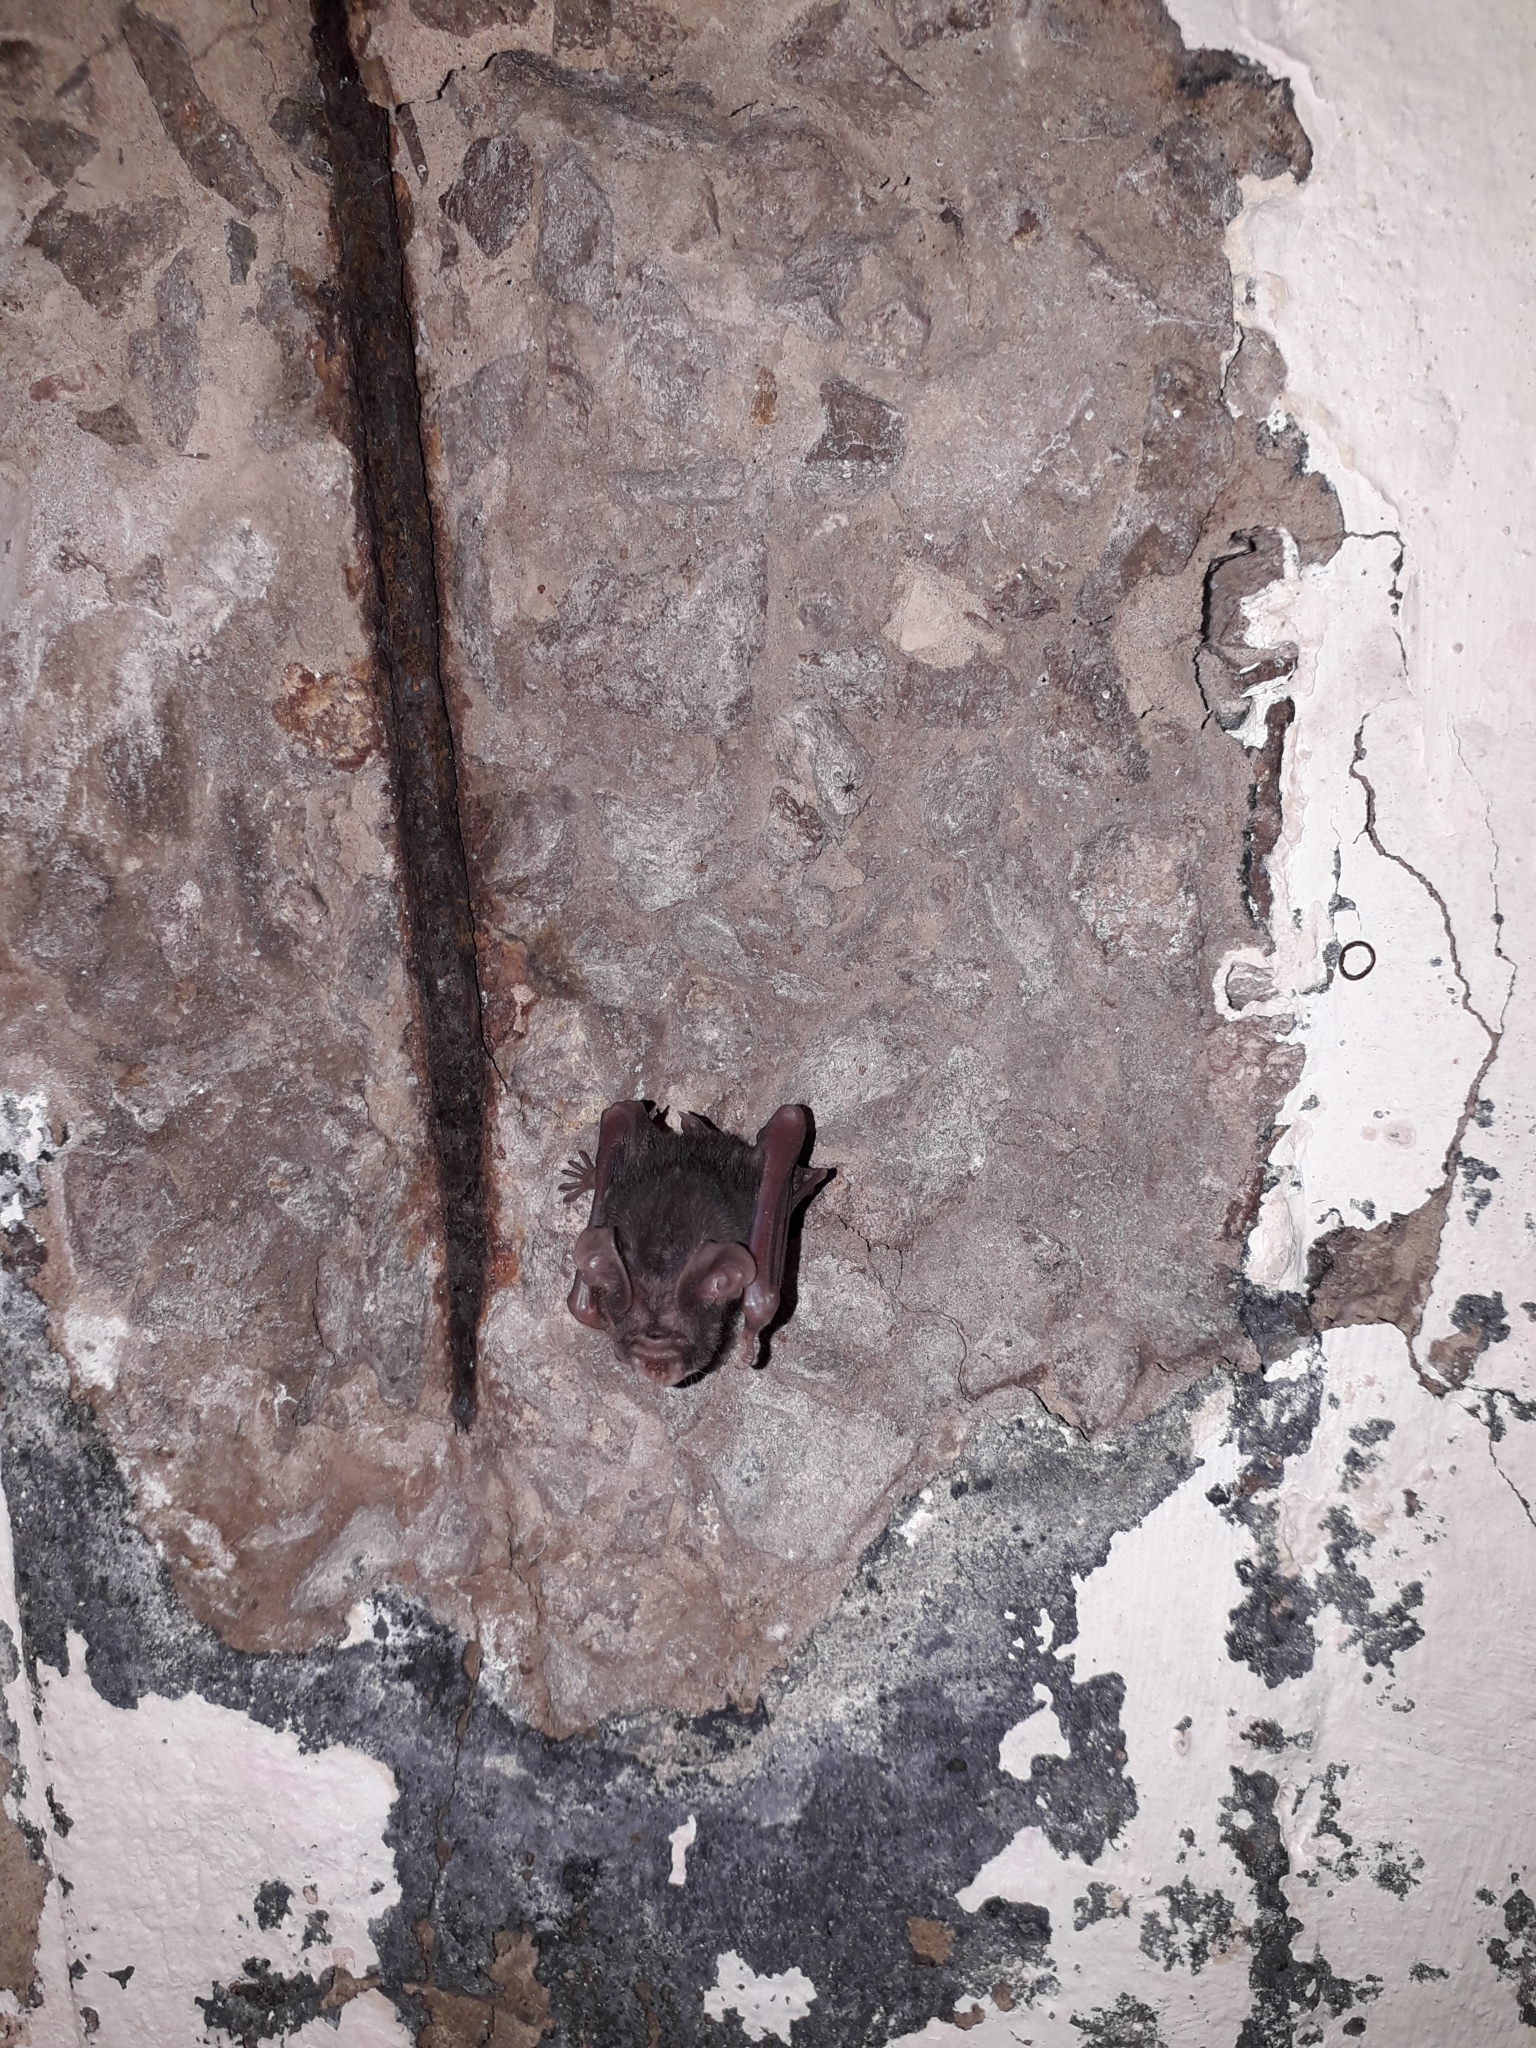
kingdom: Animalia
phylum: Chordata
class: Mammalia
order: Chiroptera
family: Hipposideridae
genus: Hipposideros
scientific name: Hipposideros caffer
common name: Sundevall's roundleaf bat
